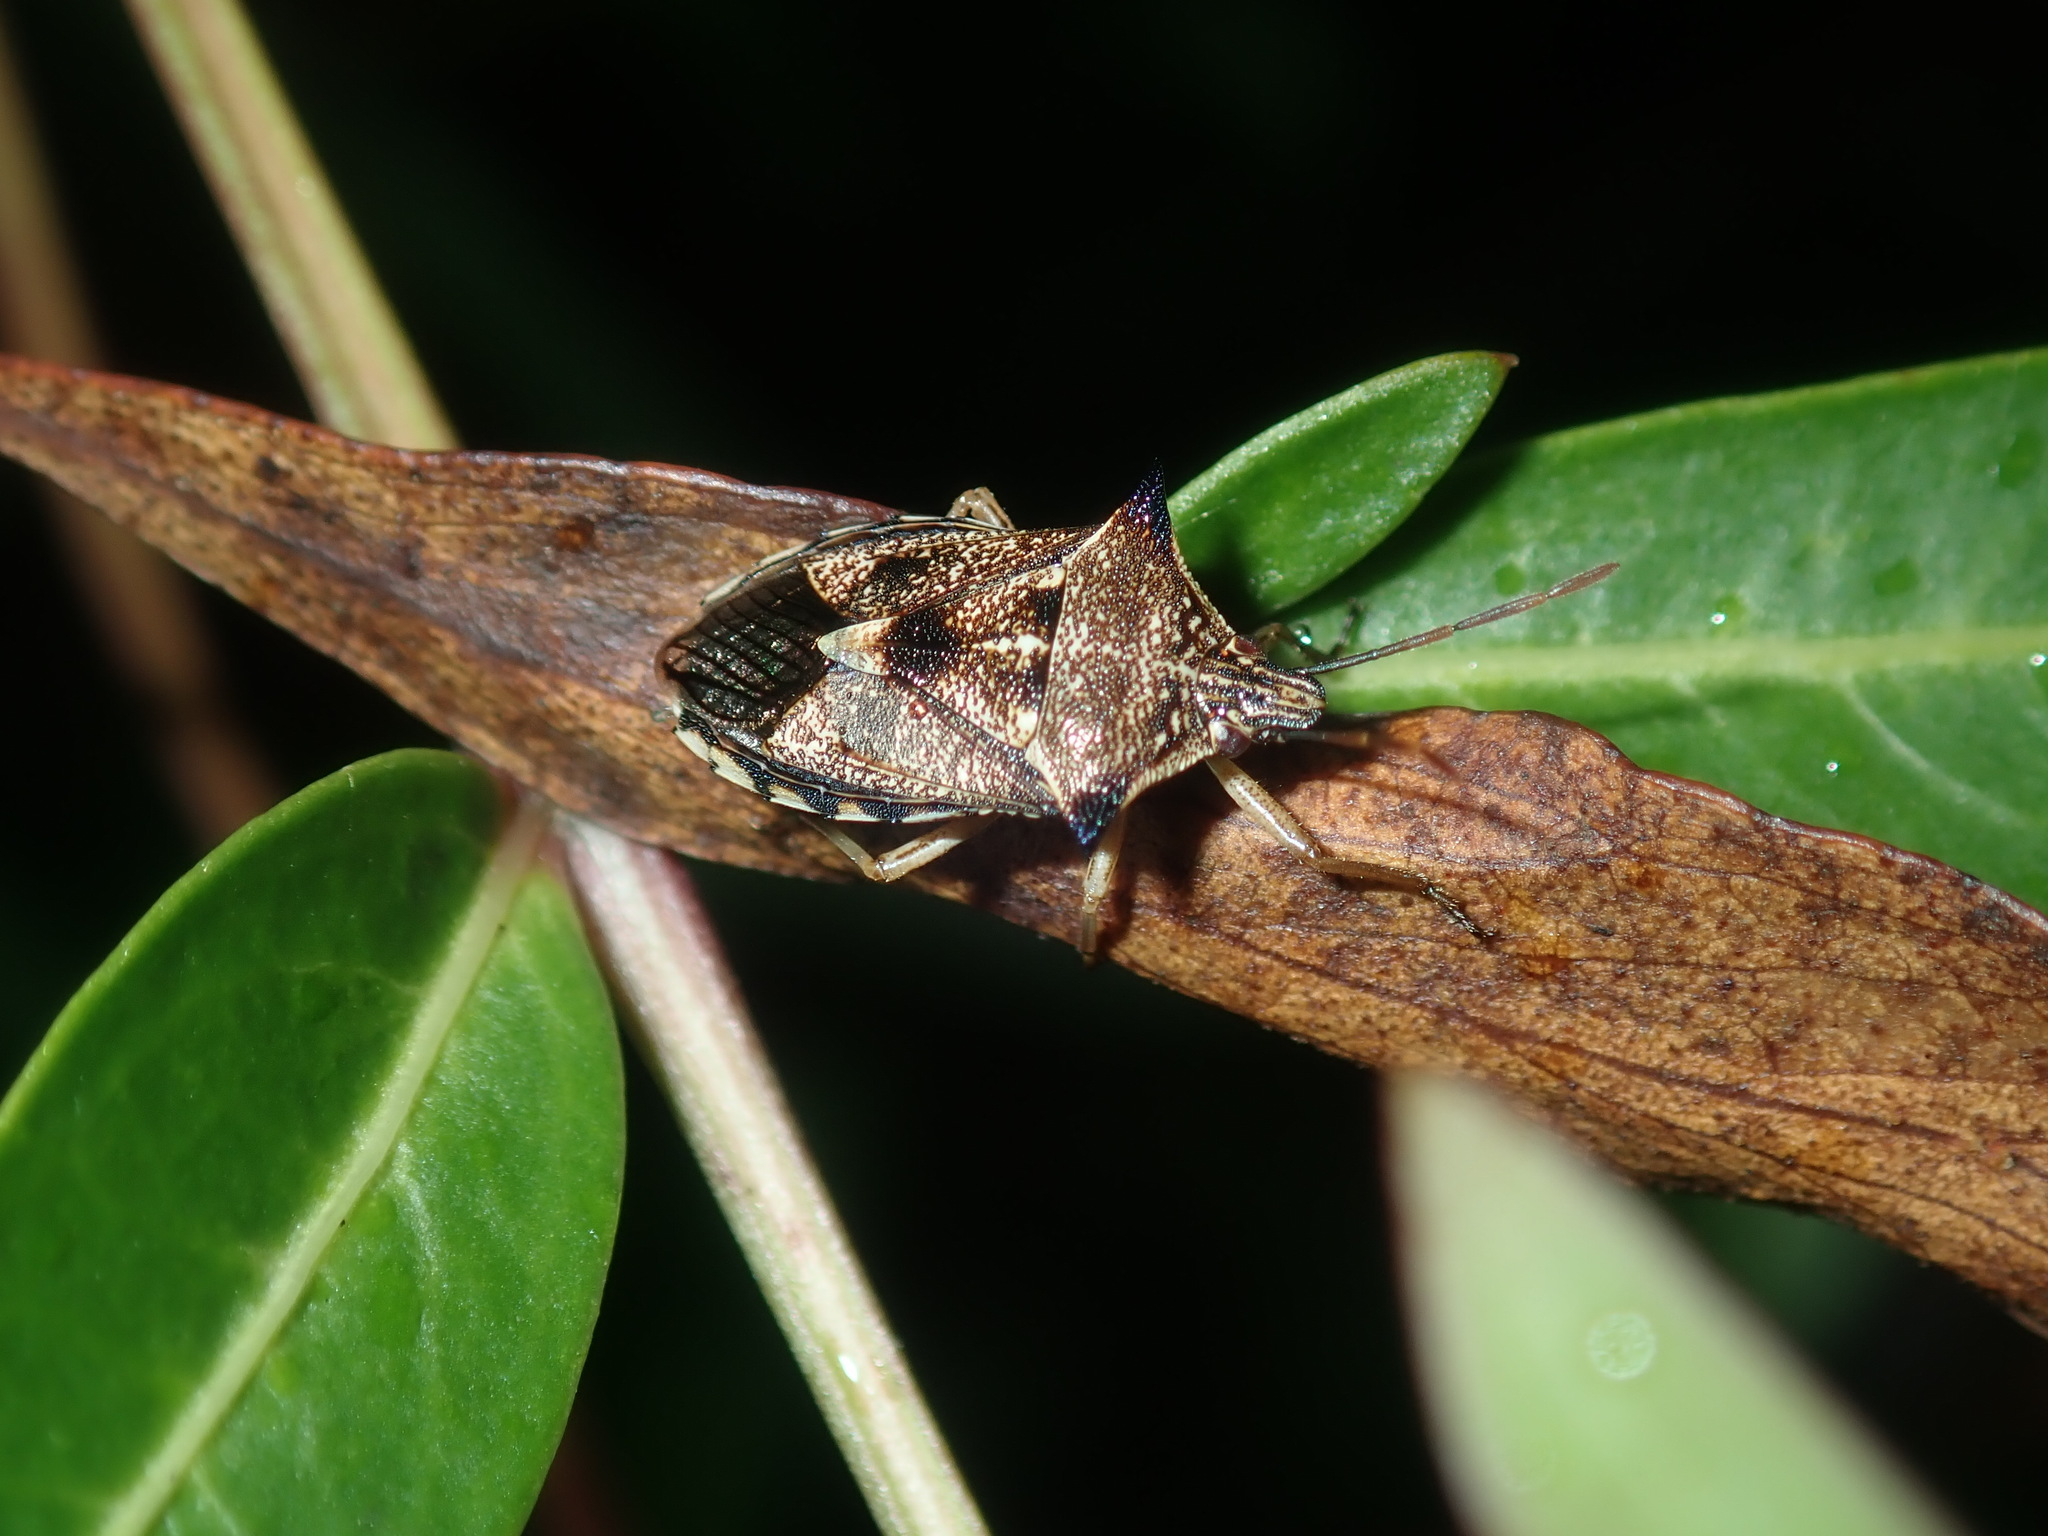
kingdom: Animalia
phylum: Arthropoda
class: Insecta
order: Hemiptera
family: Pentatomidae
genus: Oechalia
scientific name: Oechalia schellenbergii
